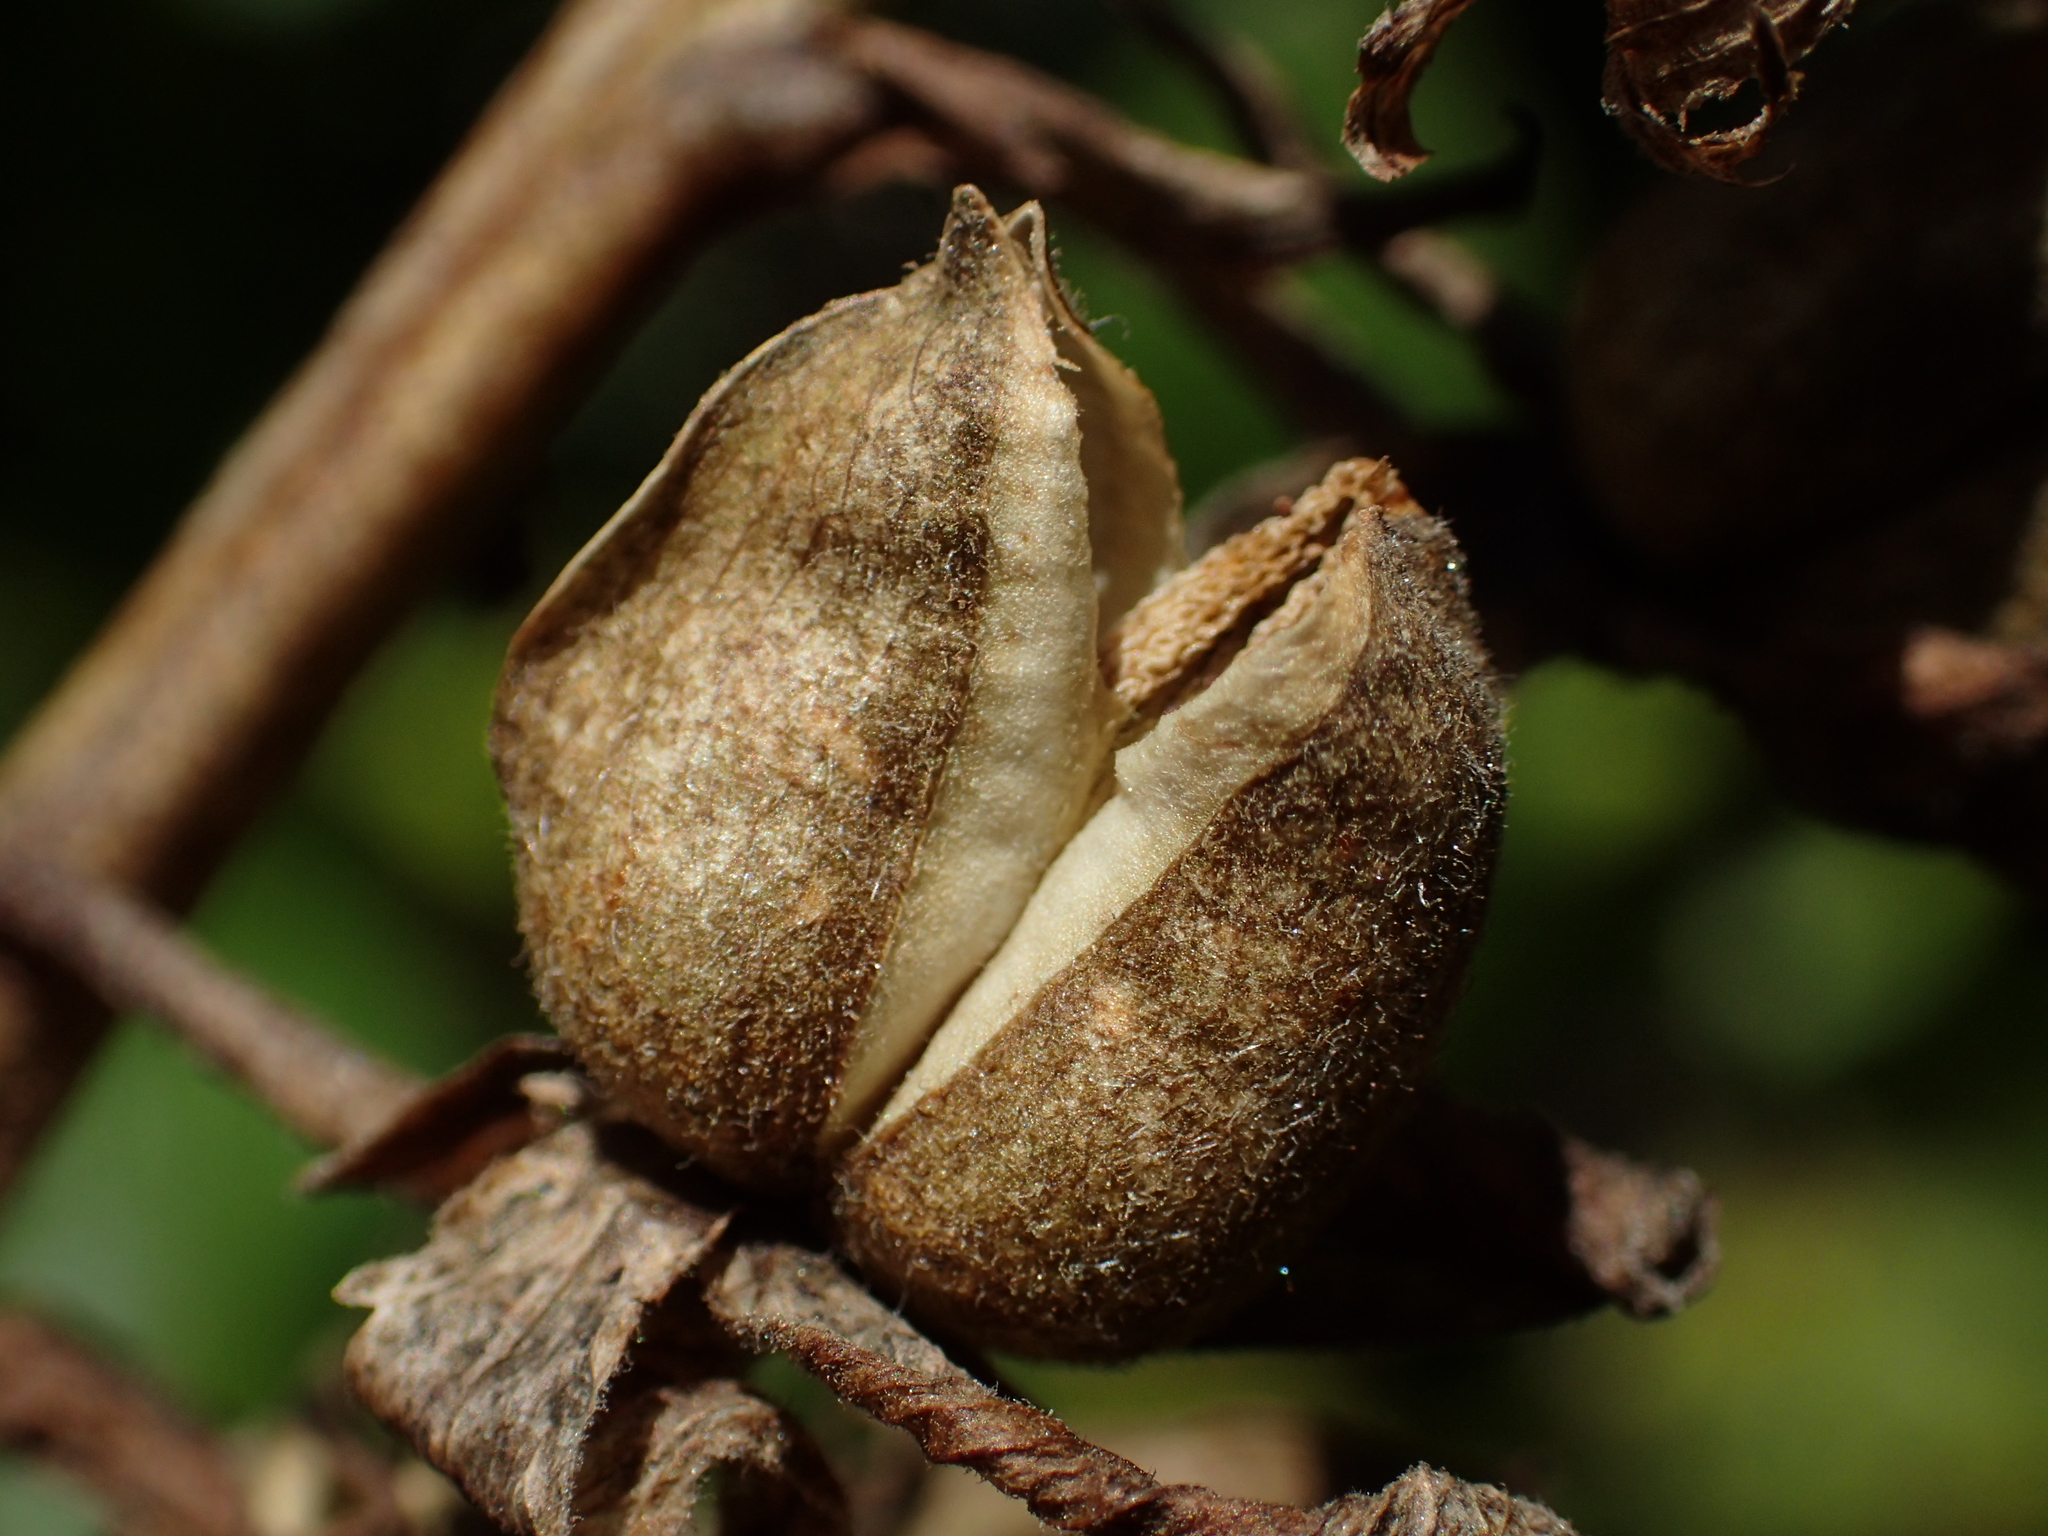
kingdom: Plantae
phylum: Tracheophyta
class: Magnoliopsida
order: Lamiales
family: Plantaginaceae
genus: Digitalis
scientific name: Digitalis purpurea
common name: Foxglove
